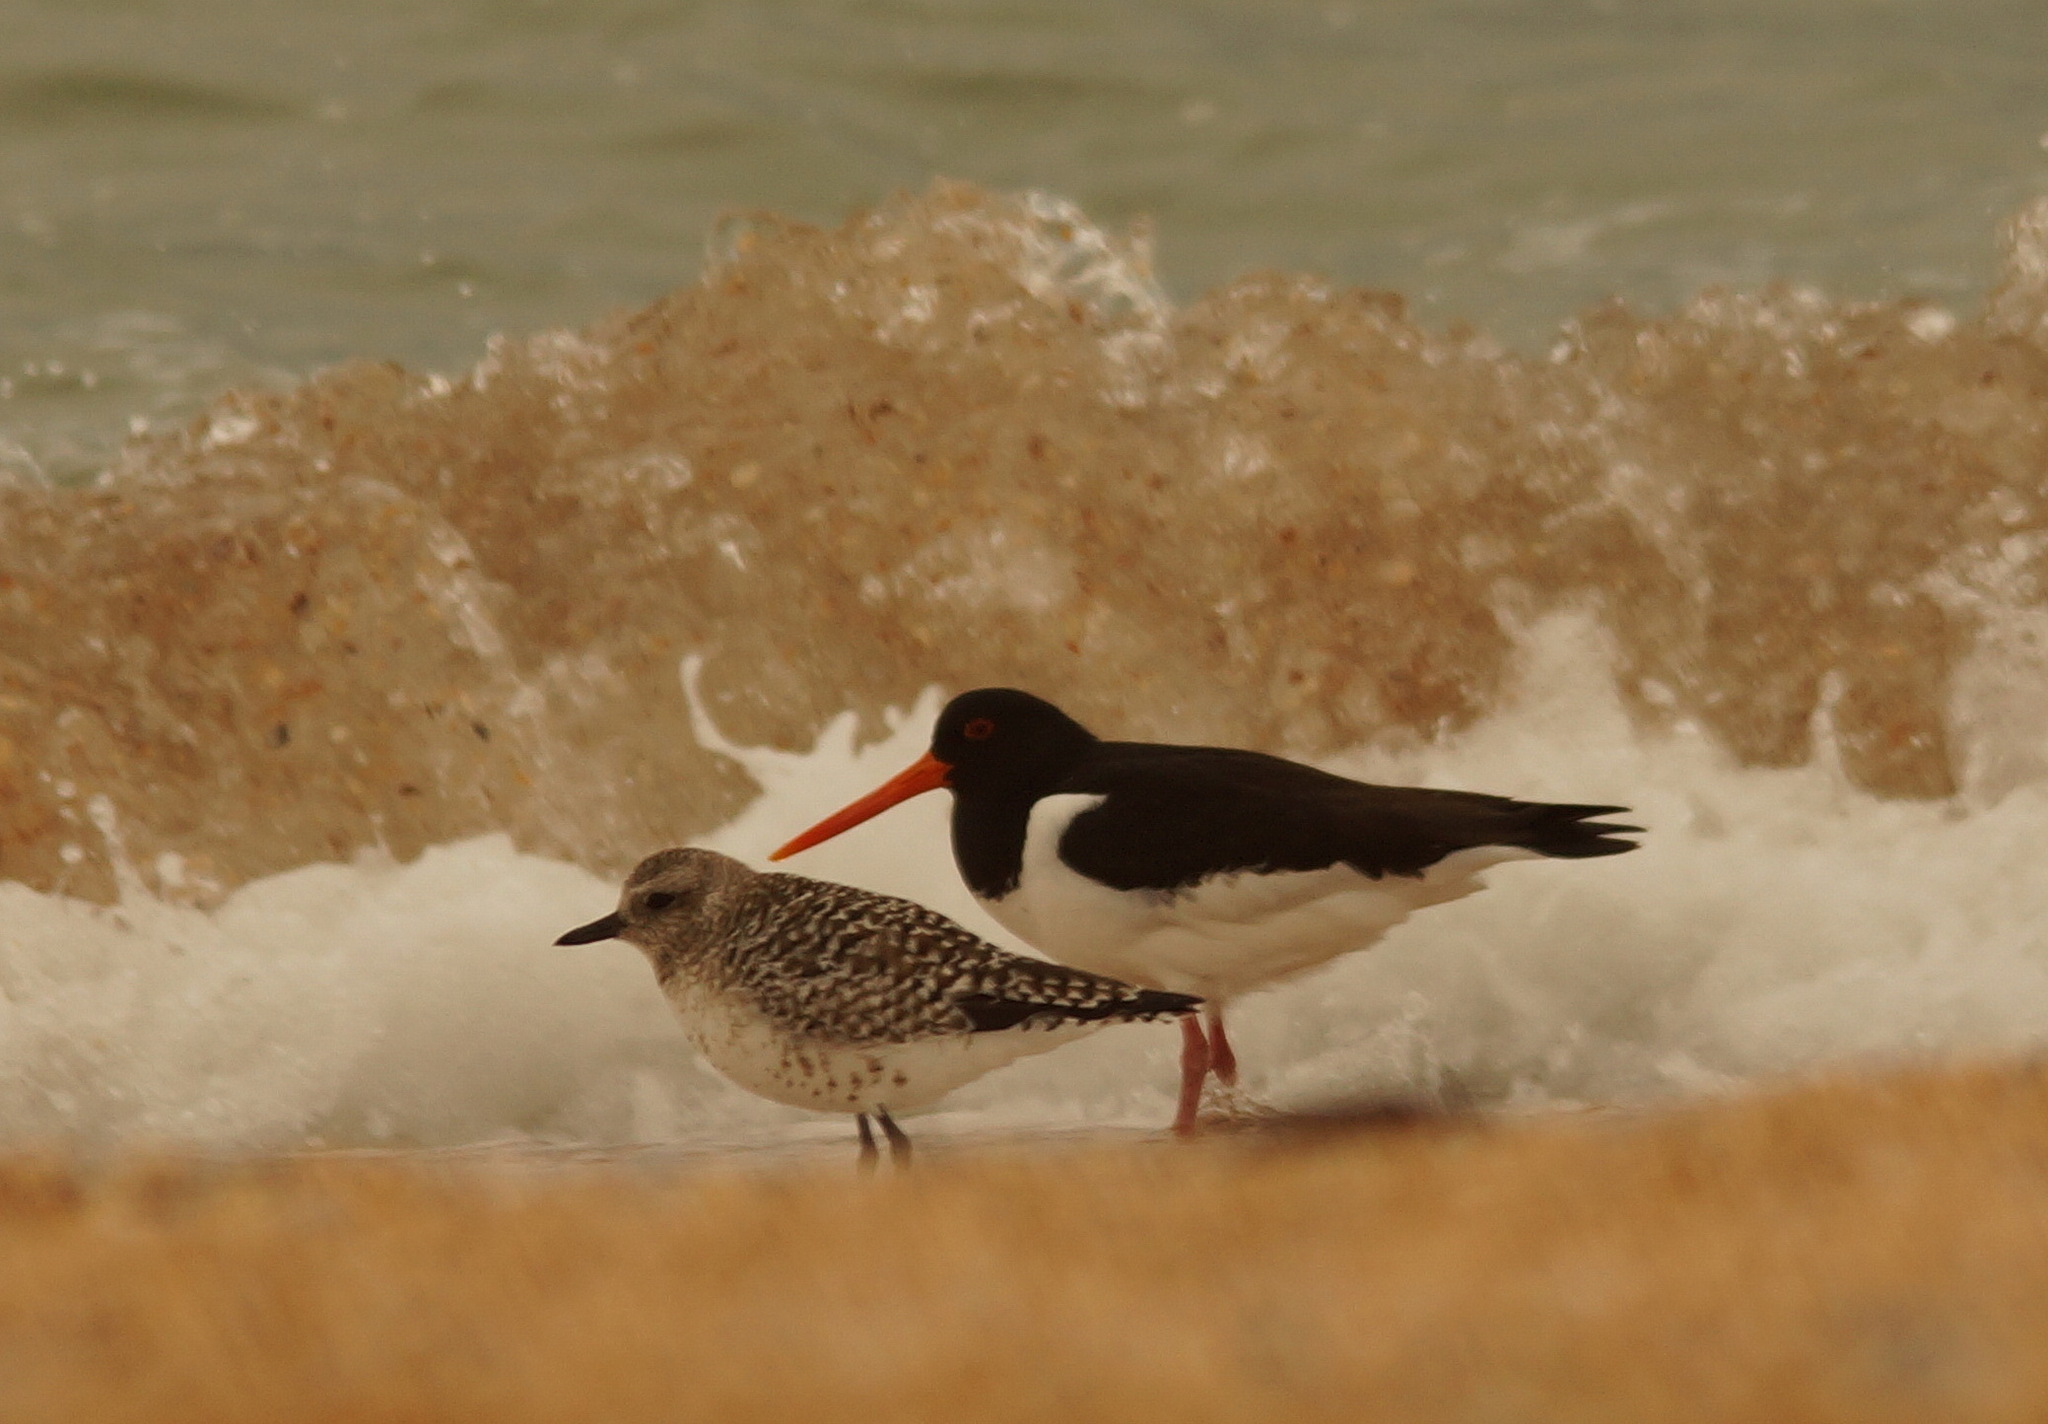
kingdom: Animalia
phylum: Chordata
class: Aves
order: Charadriiformes
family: Haematopodidae
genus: Haematopus
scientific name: Haematopus ostralegus
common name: Eurasian oystercatcher
